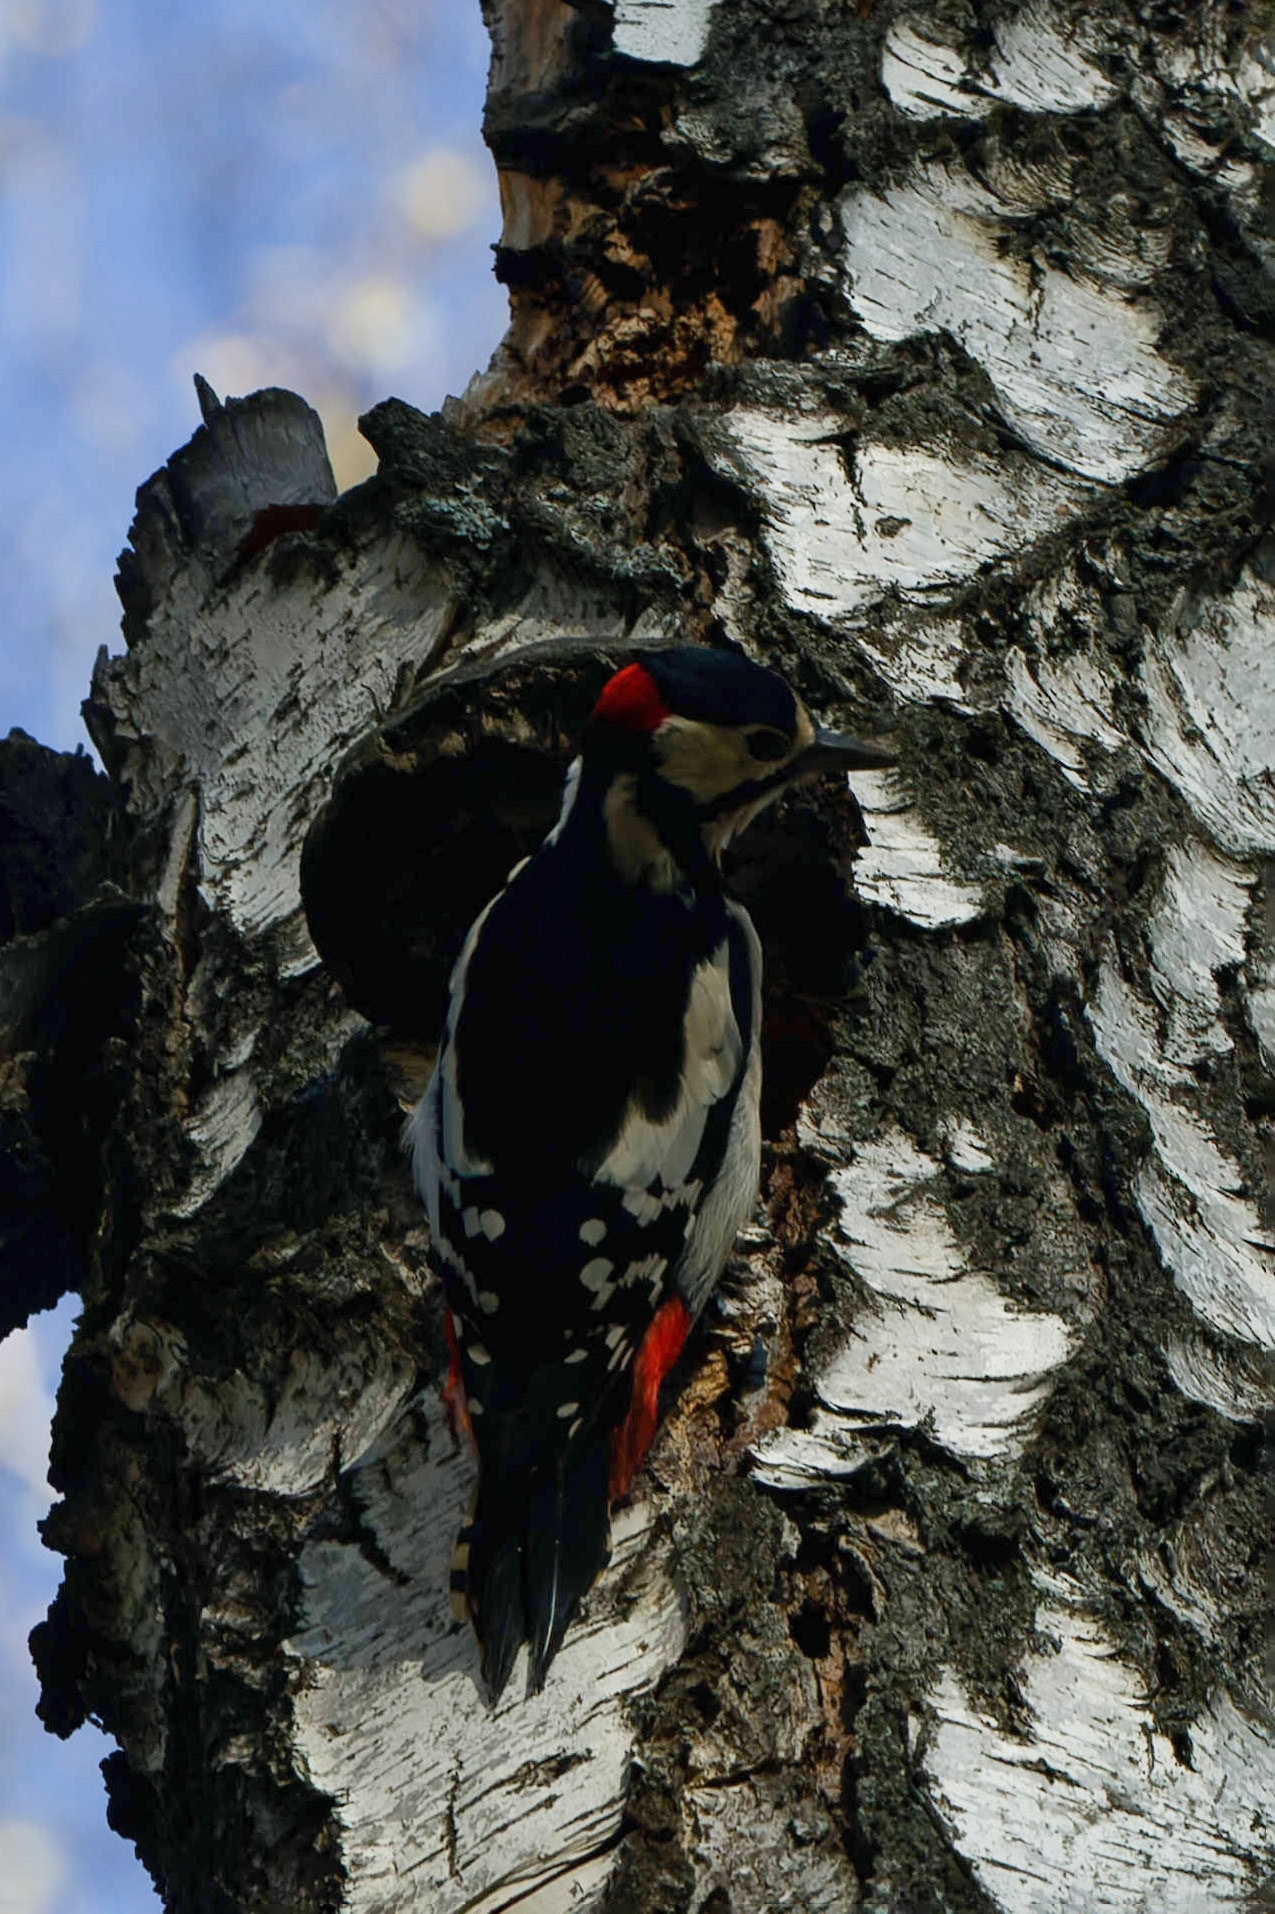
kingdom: Animalia
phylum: Chordata
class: Aves
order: Piciformes
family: Picidae
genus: Dendrocopos
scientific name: Dendrocopos major
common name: Great spotted woodpecker
